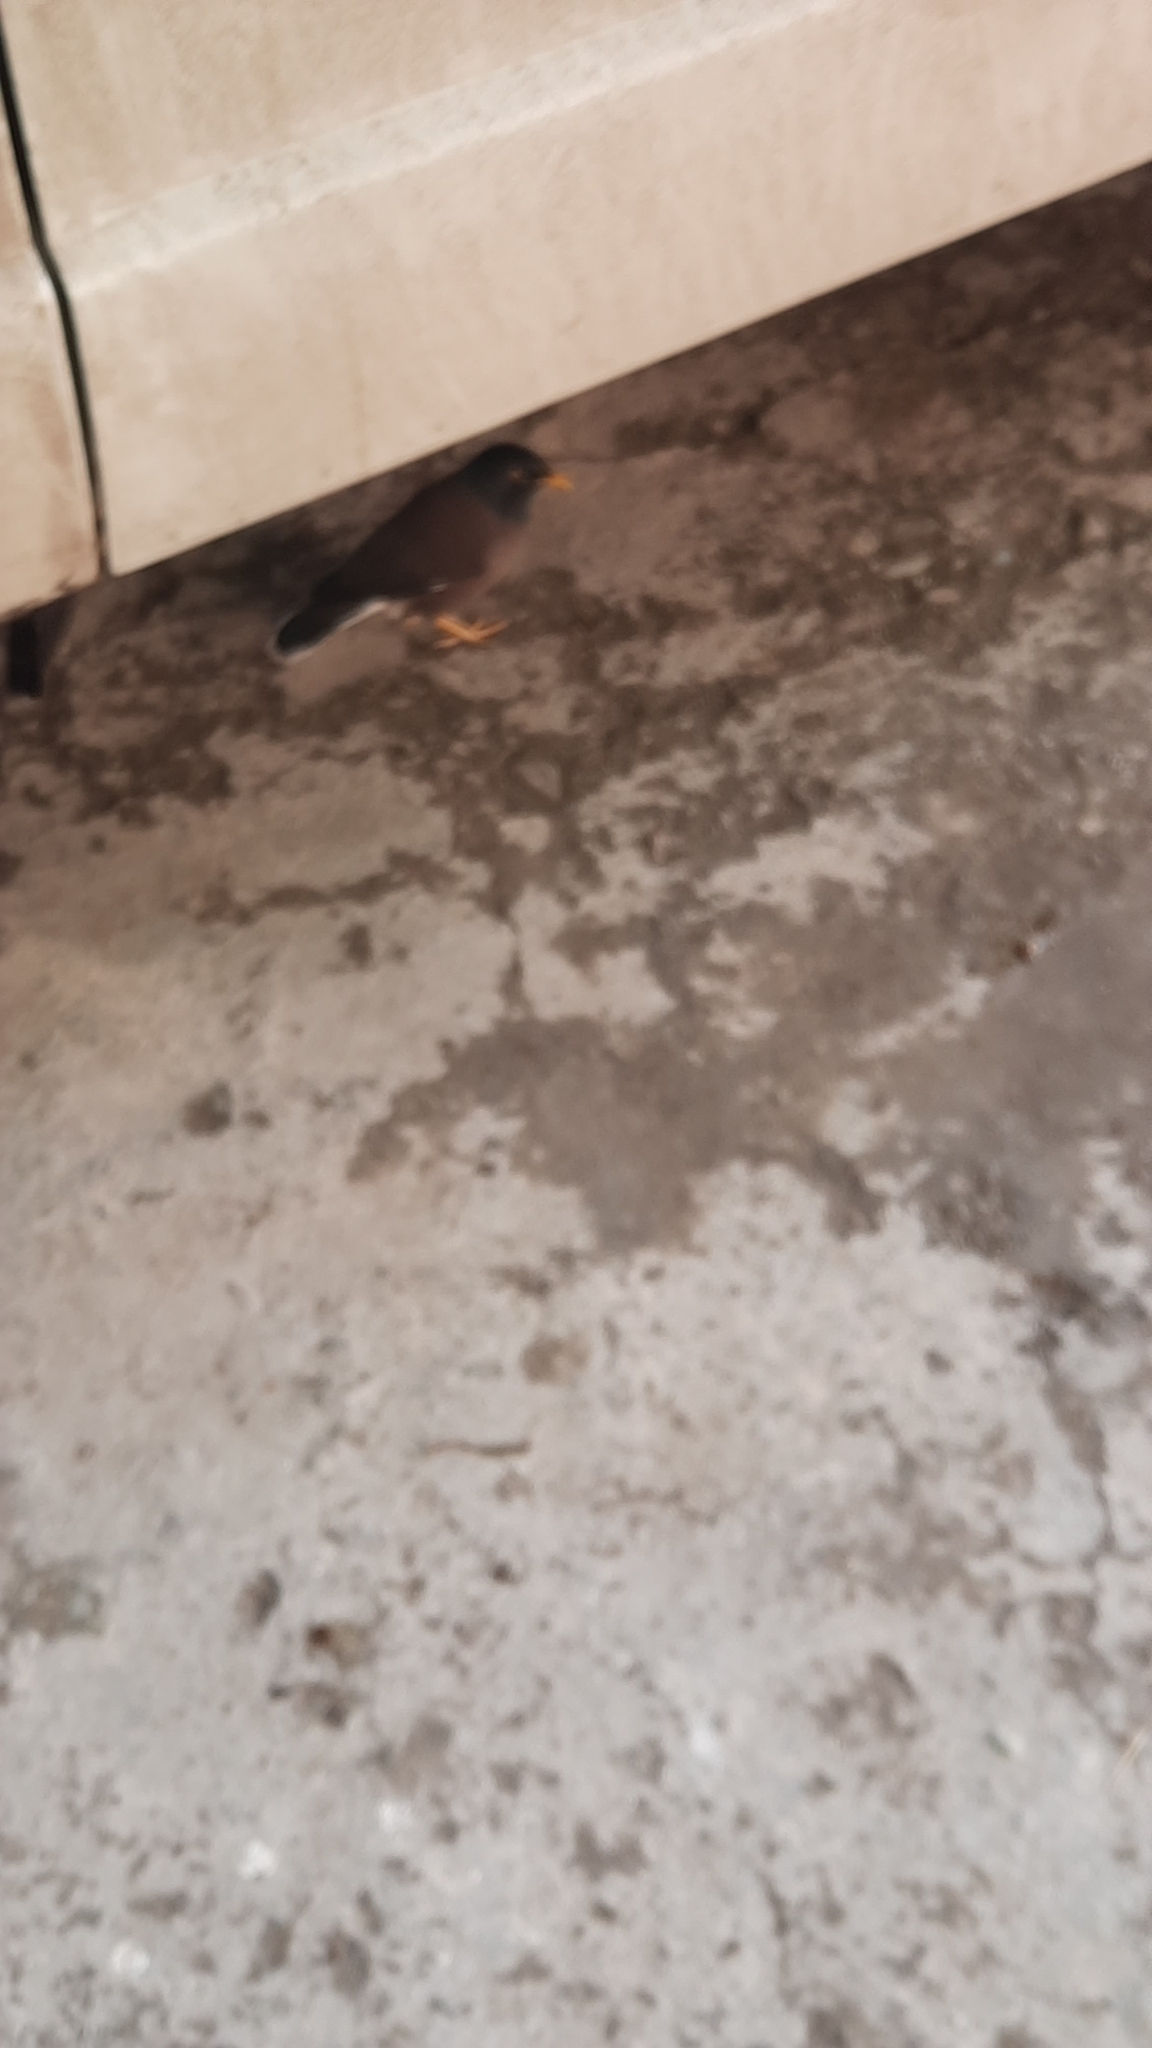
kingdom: Animalia
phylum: Chordata
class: Aves
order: Passeriformes
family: Sturnidae
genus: Acridotheres
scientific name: Acridotheres tristis
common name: Common myna
